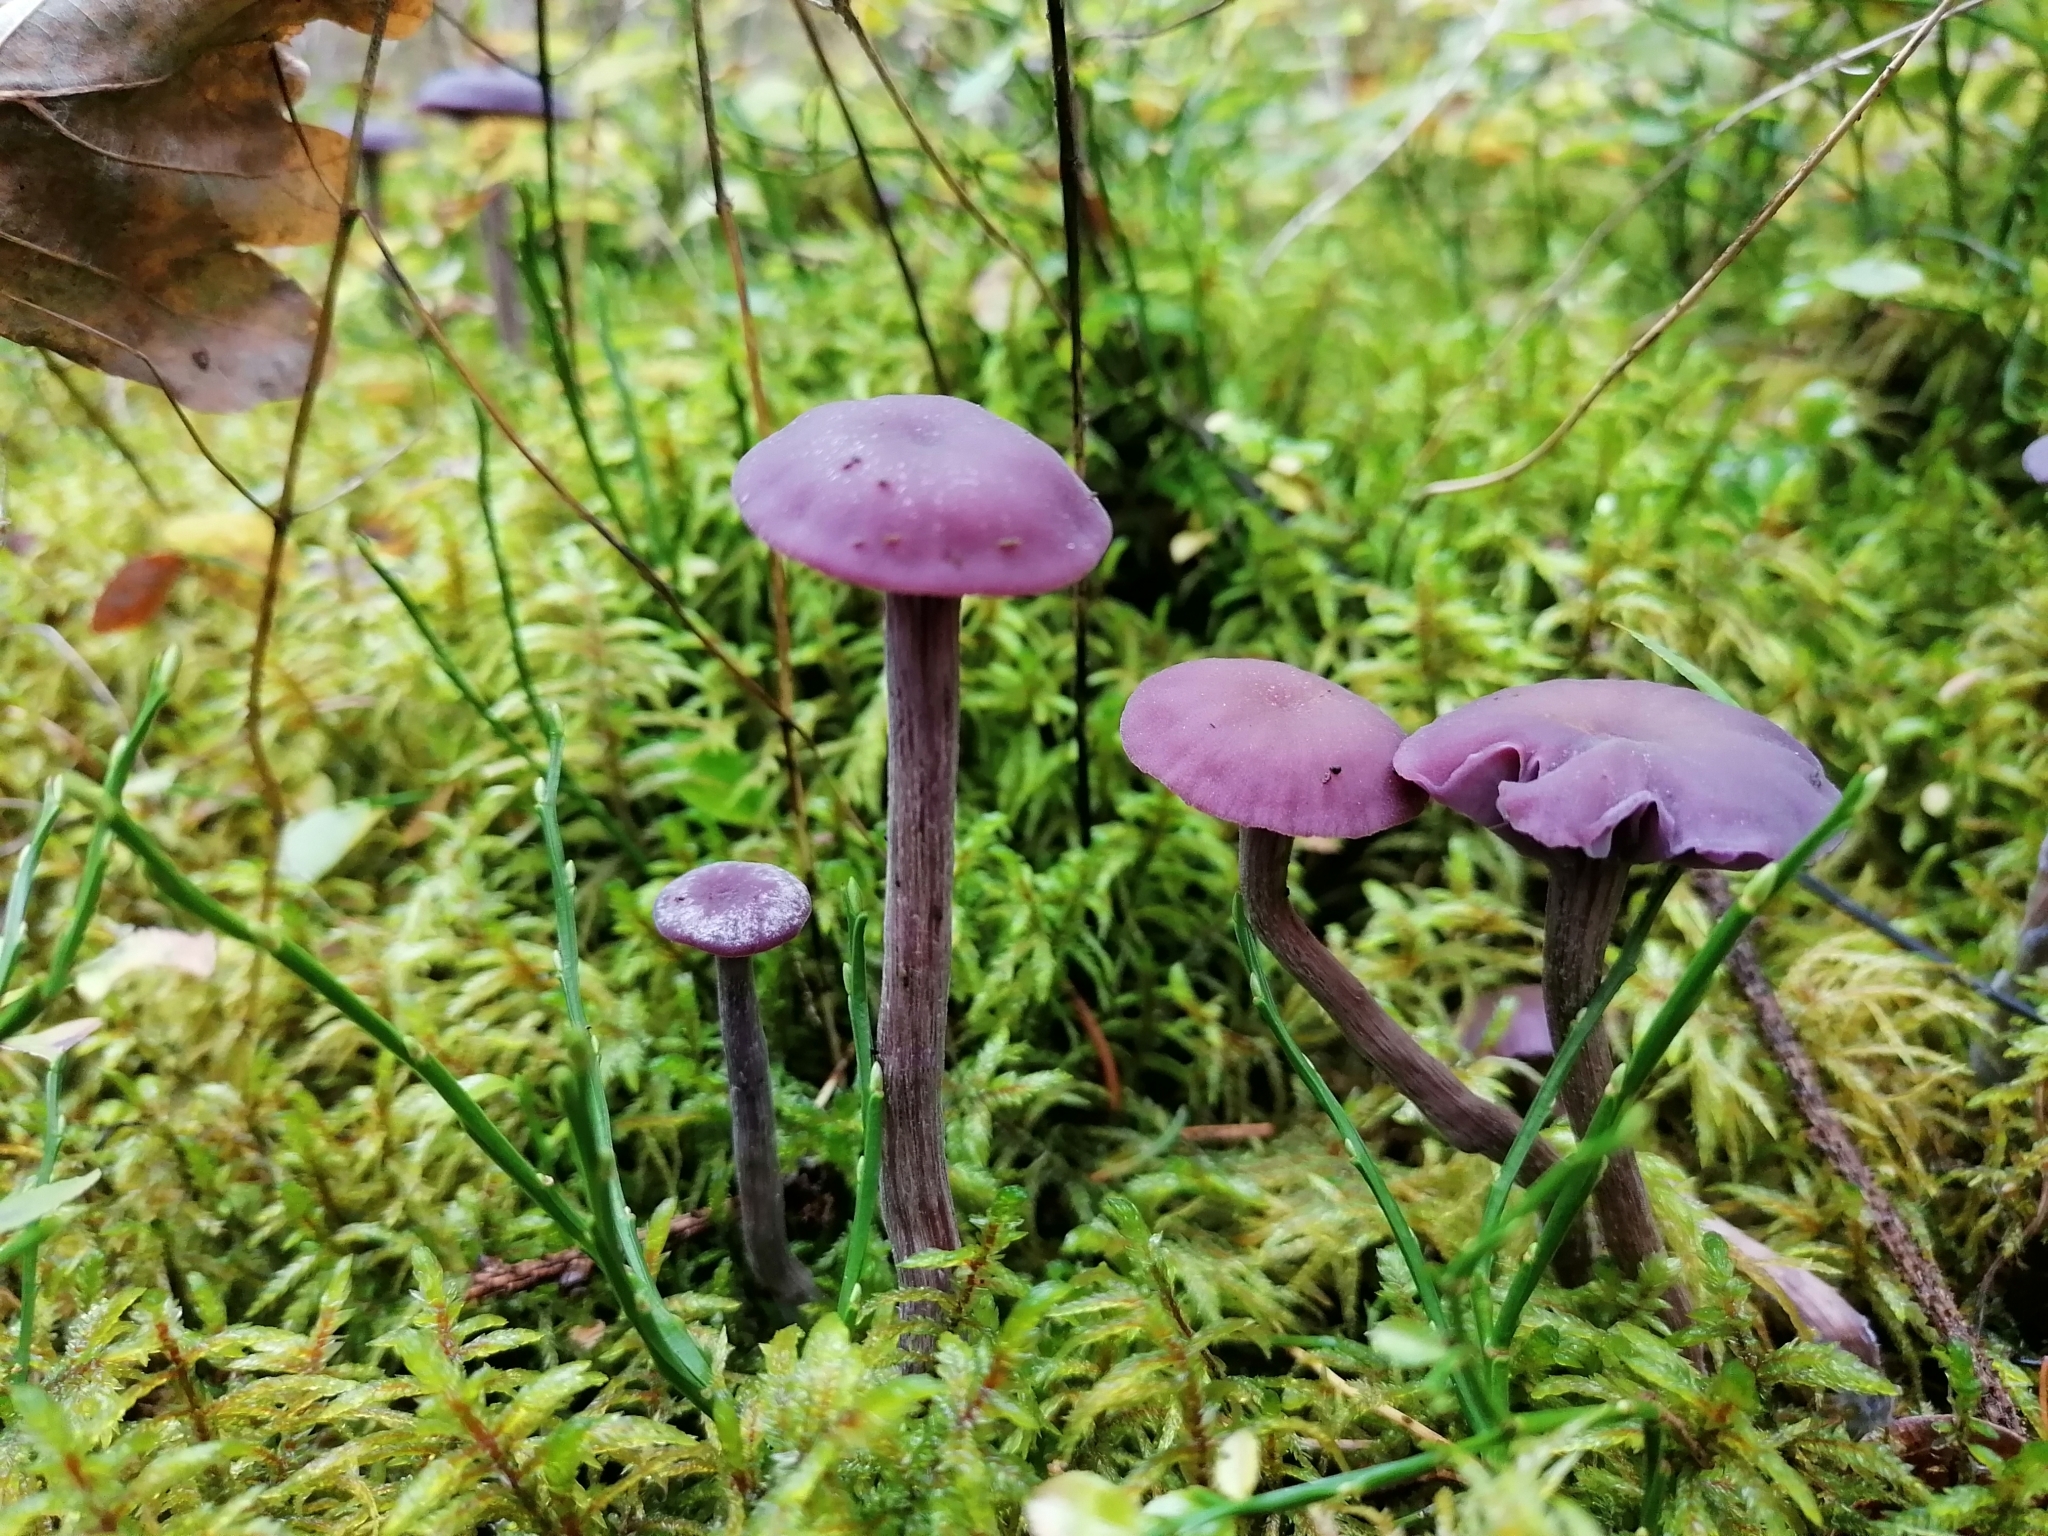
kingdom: Fungi
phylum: Basidiomycota
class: Agaricomycetes
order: Agaricales
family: Hydnangiaceae
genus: Laccaria
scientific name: Laccaria amethystina
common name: Amethyst deceiver
